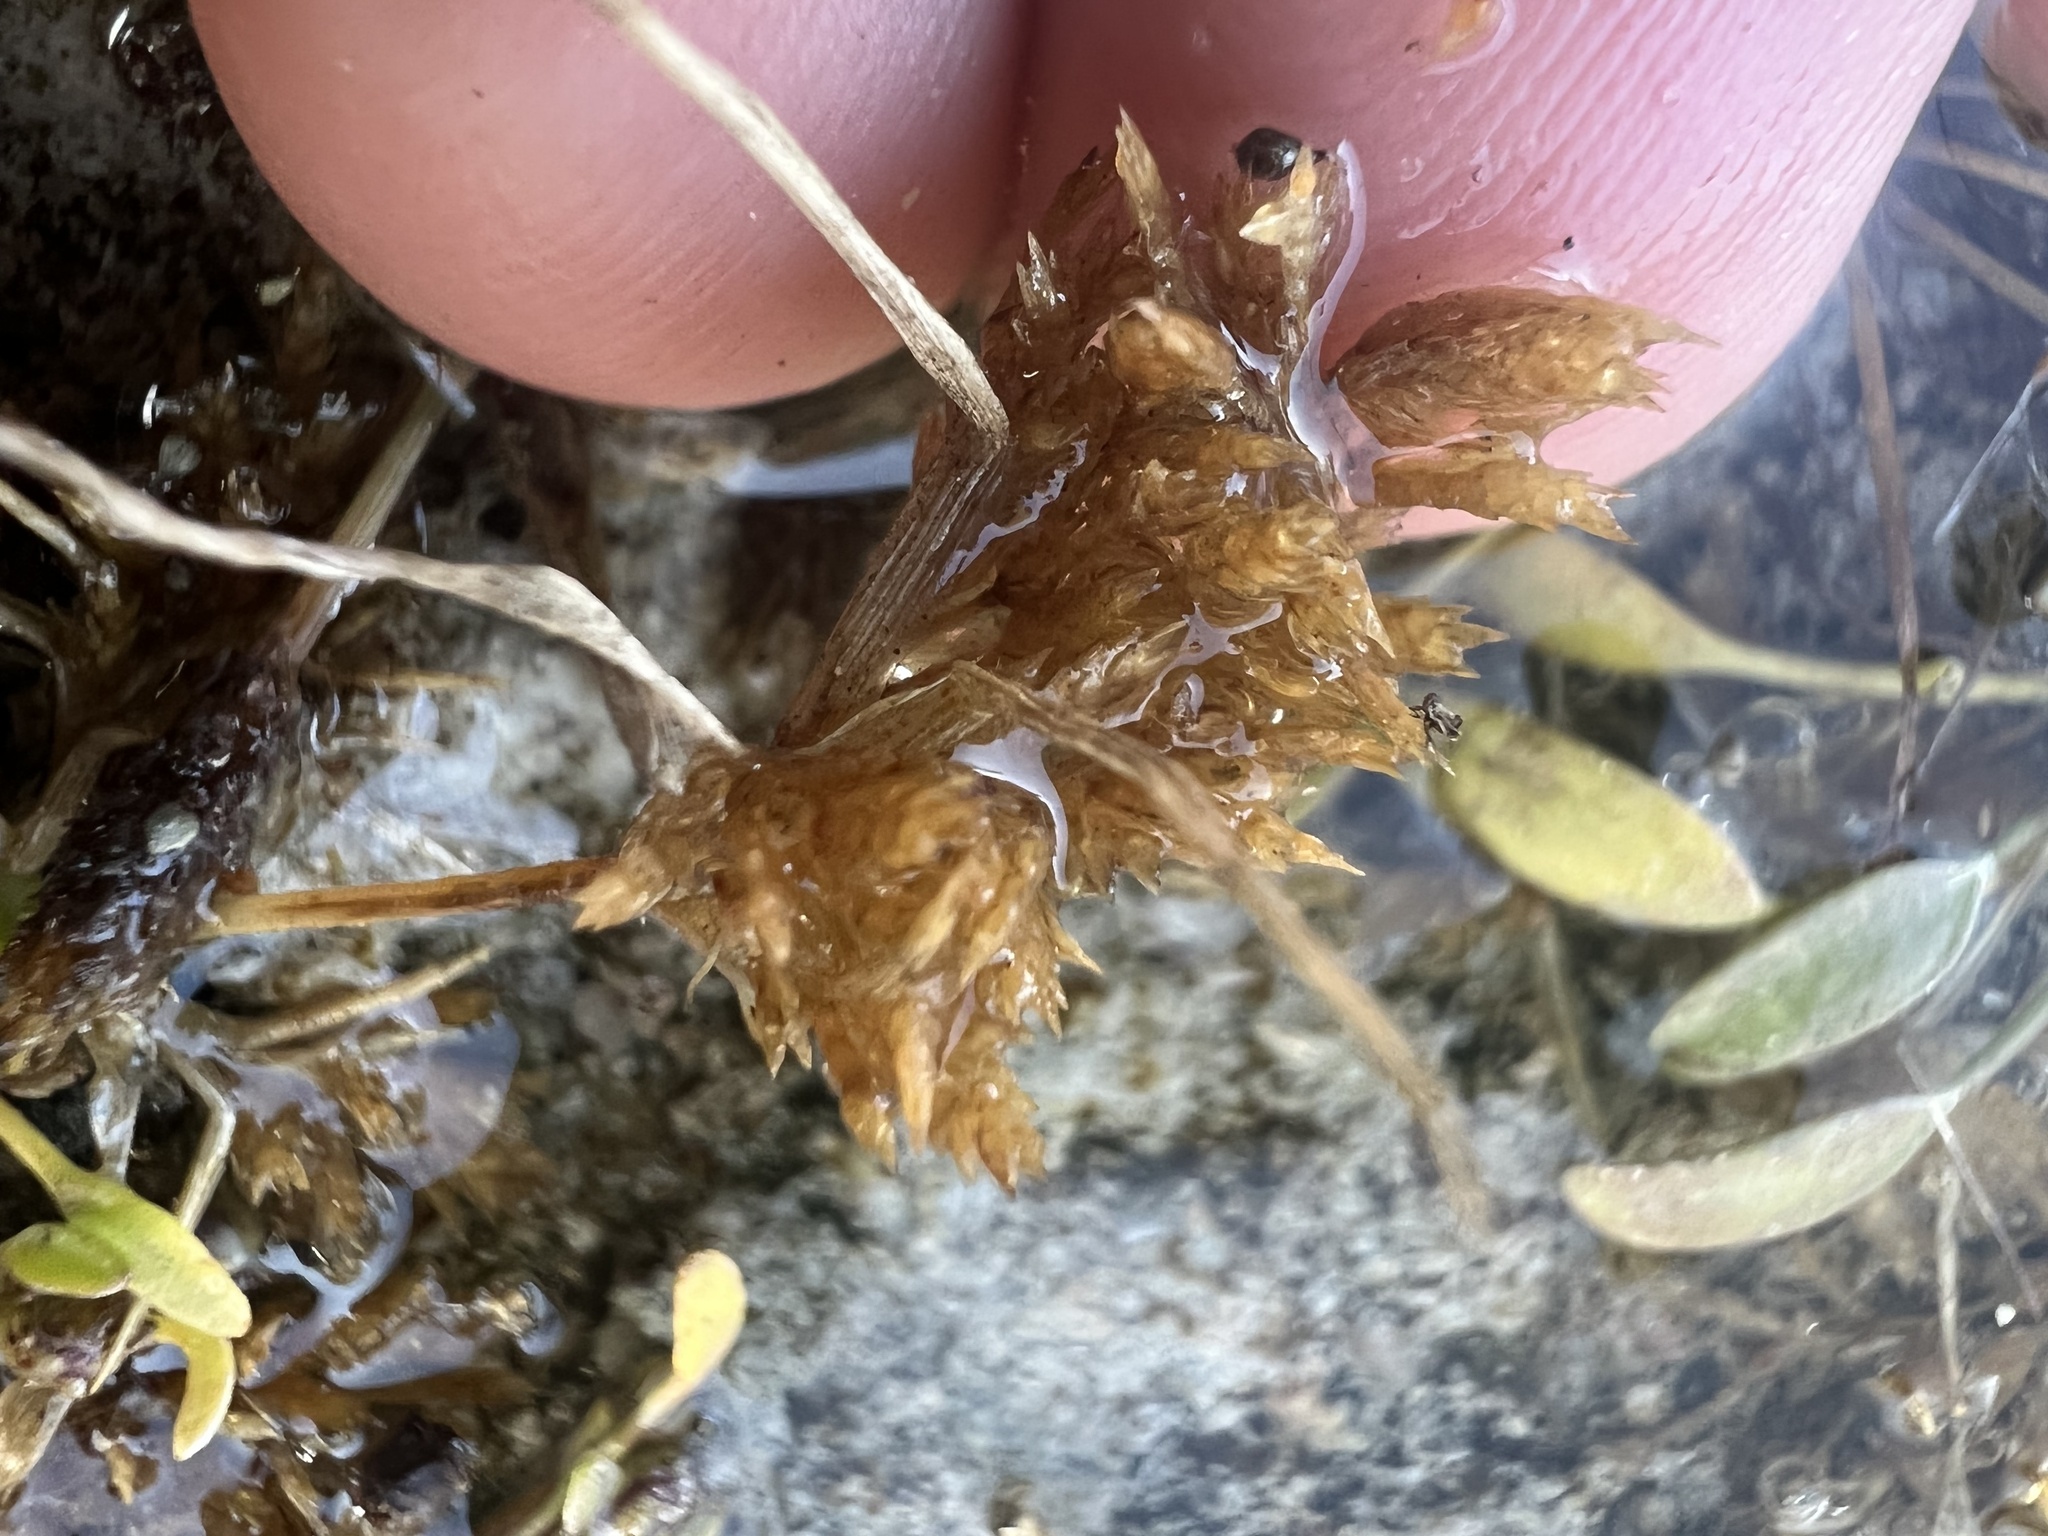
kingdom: Plantae
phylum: Tracheophyta
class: Liliopsida
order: Poales
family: Poaceae
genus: Eragrostis
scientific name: Eragrostis hypnoides
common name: Creeping love grass
